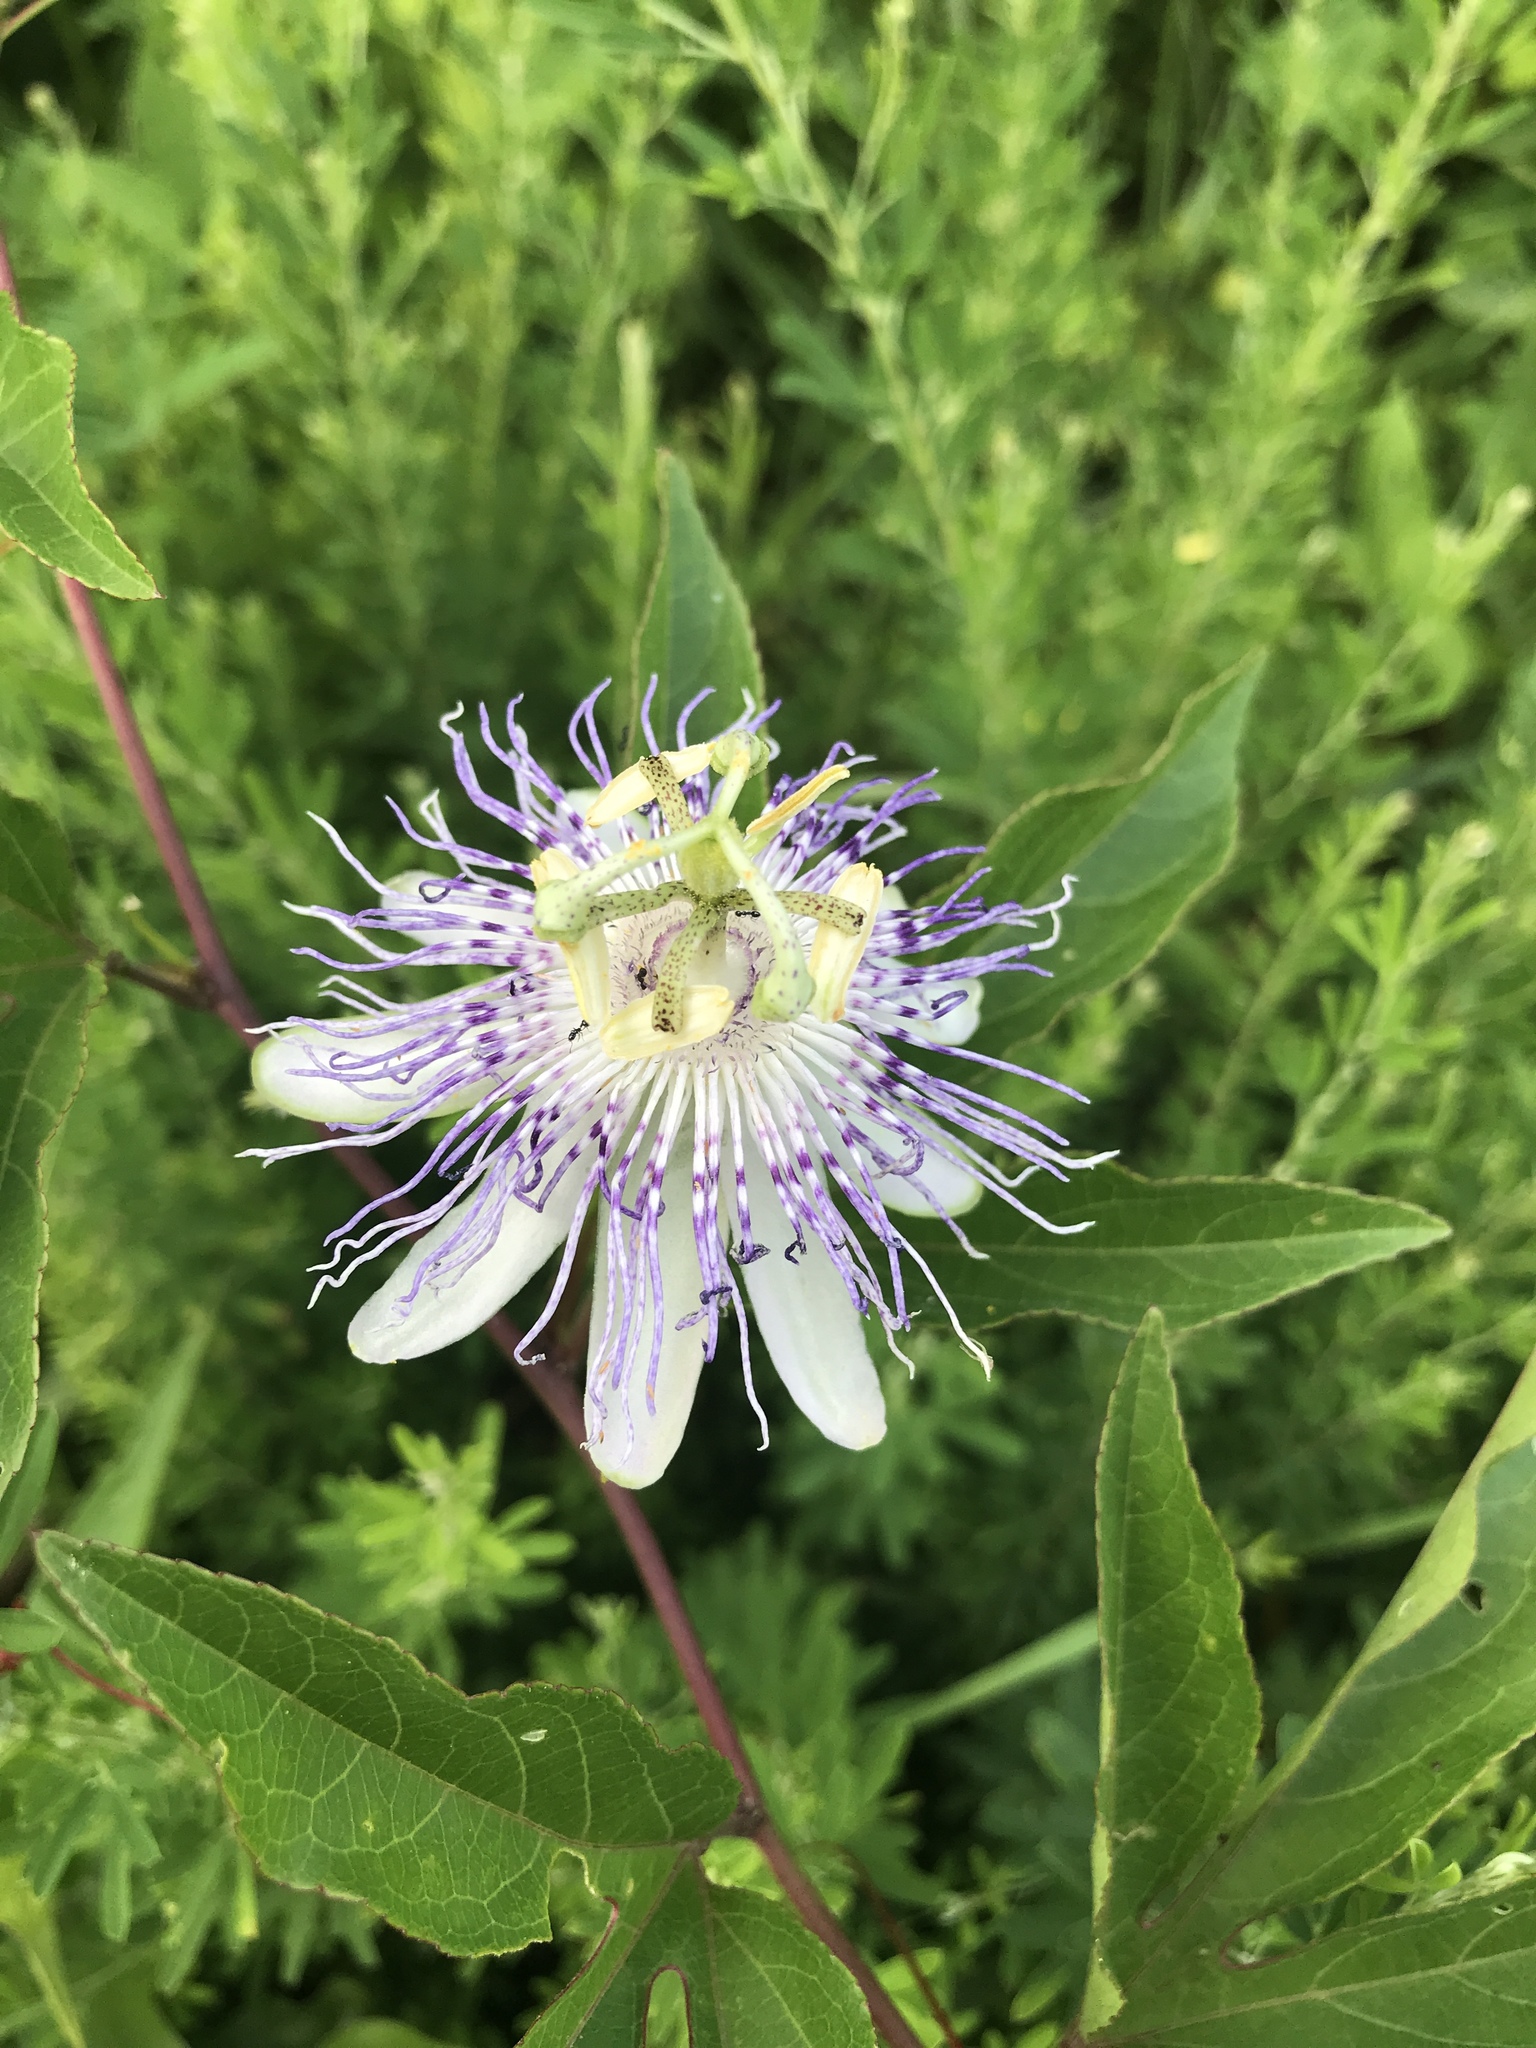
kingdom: Plantae
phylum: Tracheophyta
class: Magnoliopsida
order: Malpighiales
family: Passifloraceae
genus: Passiflora
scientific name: Passiflora incarnata
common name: Apricot-vine
